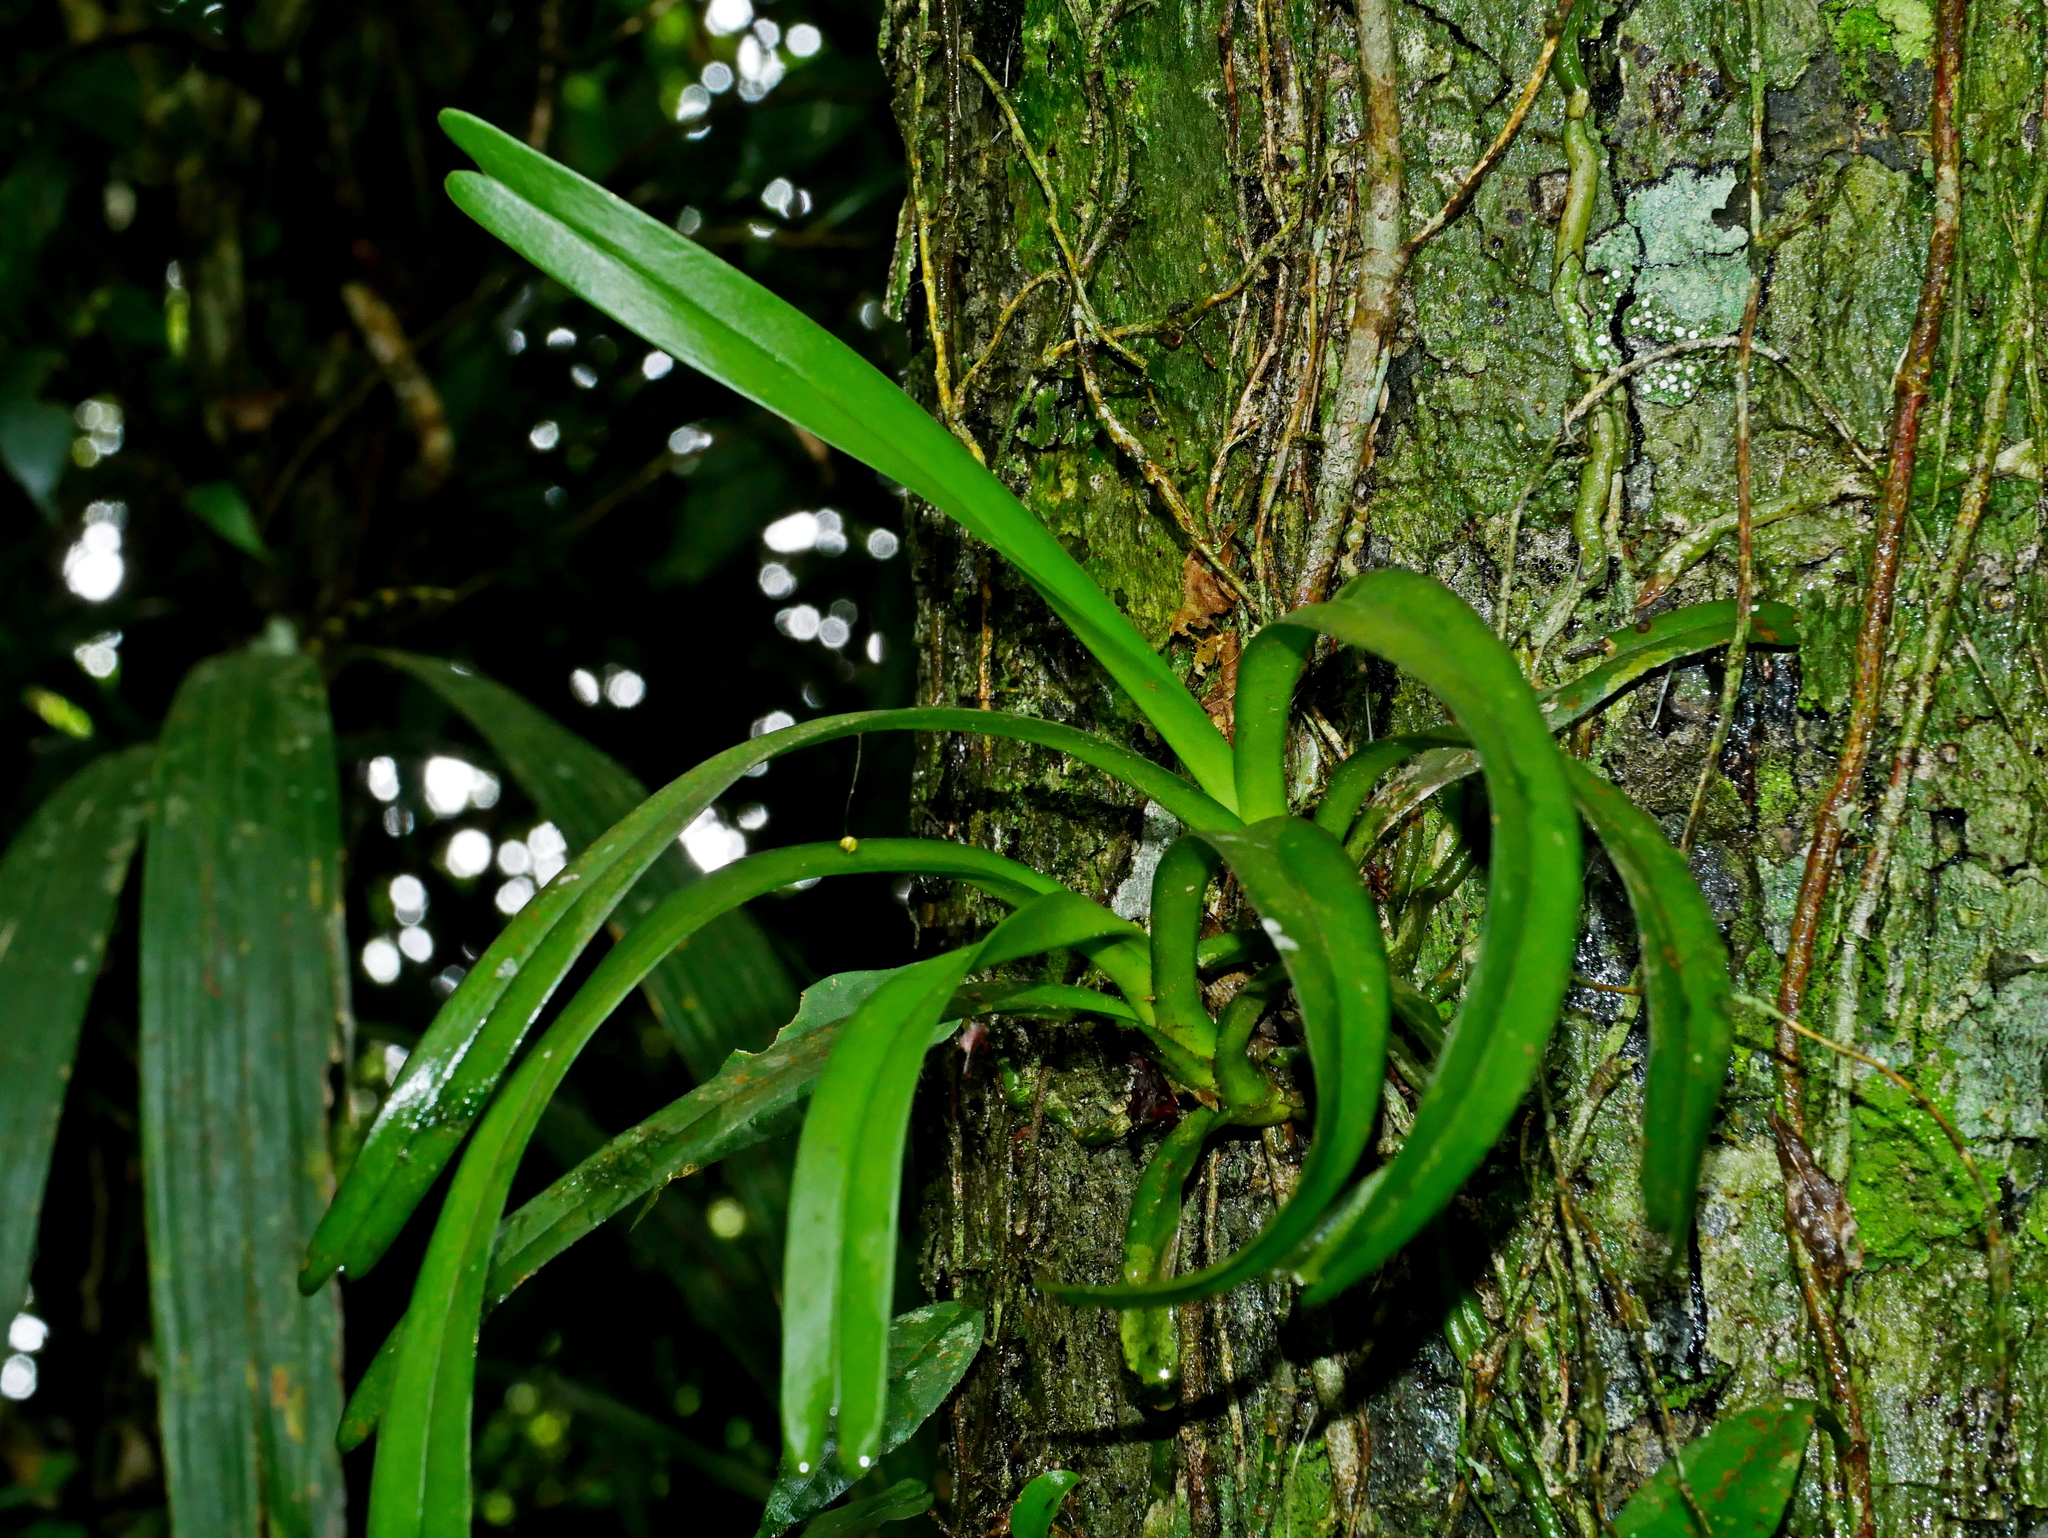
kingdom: Plantae
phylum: Tracheophyta
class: Liliopsida
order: Asparagales
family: Orchidaceae
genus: Cleisostoma
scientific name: Cleisostoma paniculatum
